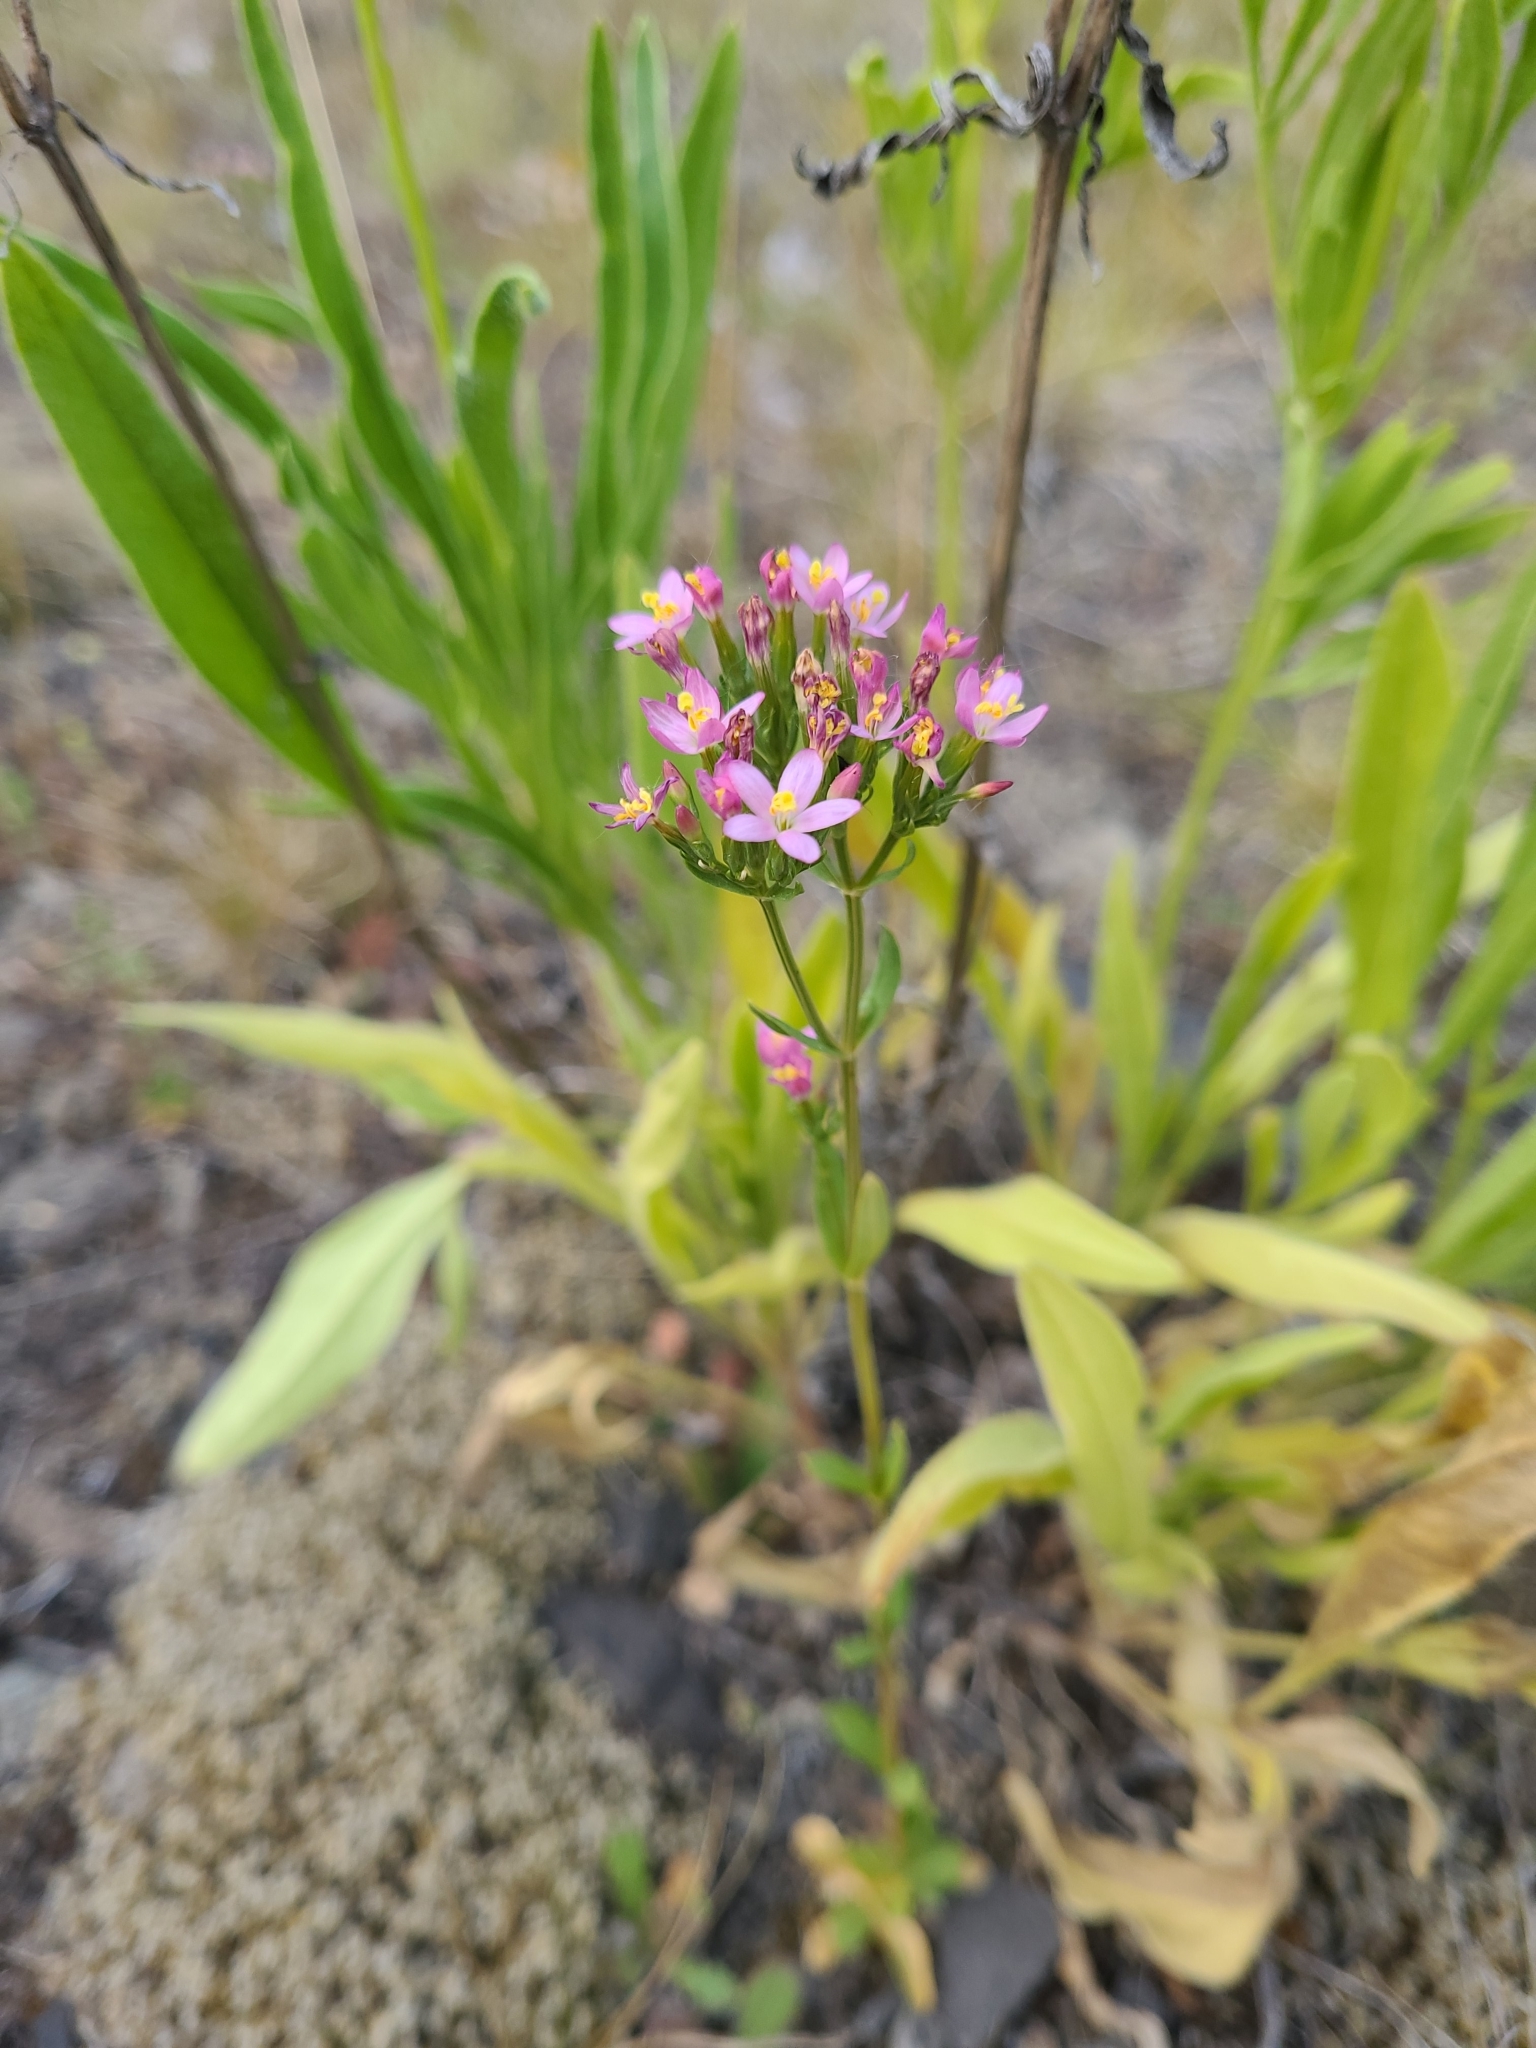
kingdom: Plantae
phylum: Tracheophyta
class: Magnoliopsida
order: Gentianales
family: Gentianaceae
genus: Centaurium
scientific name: Centaurium erythraea
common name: Common centaury
